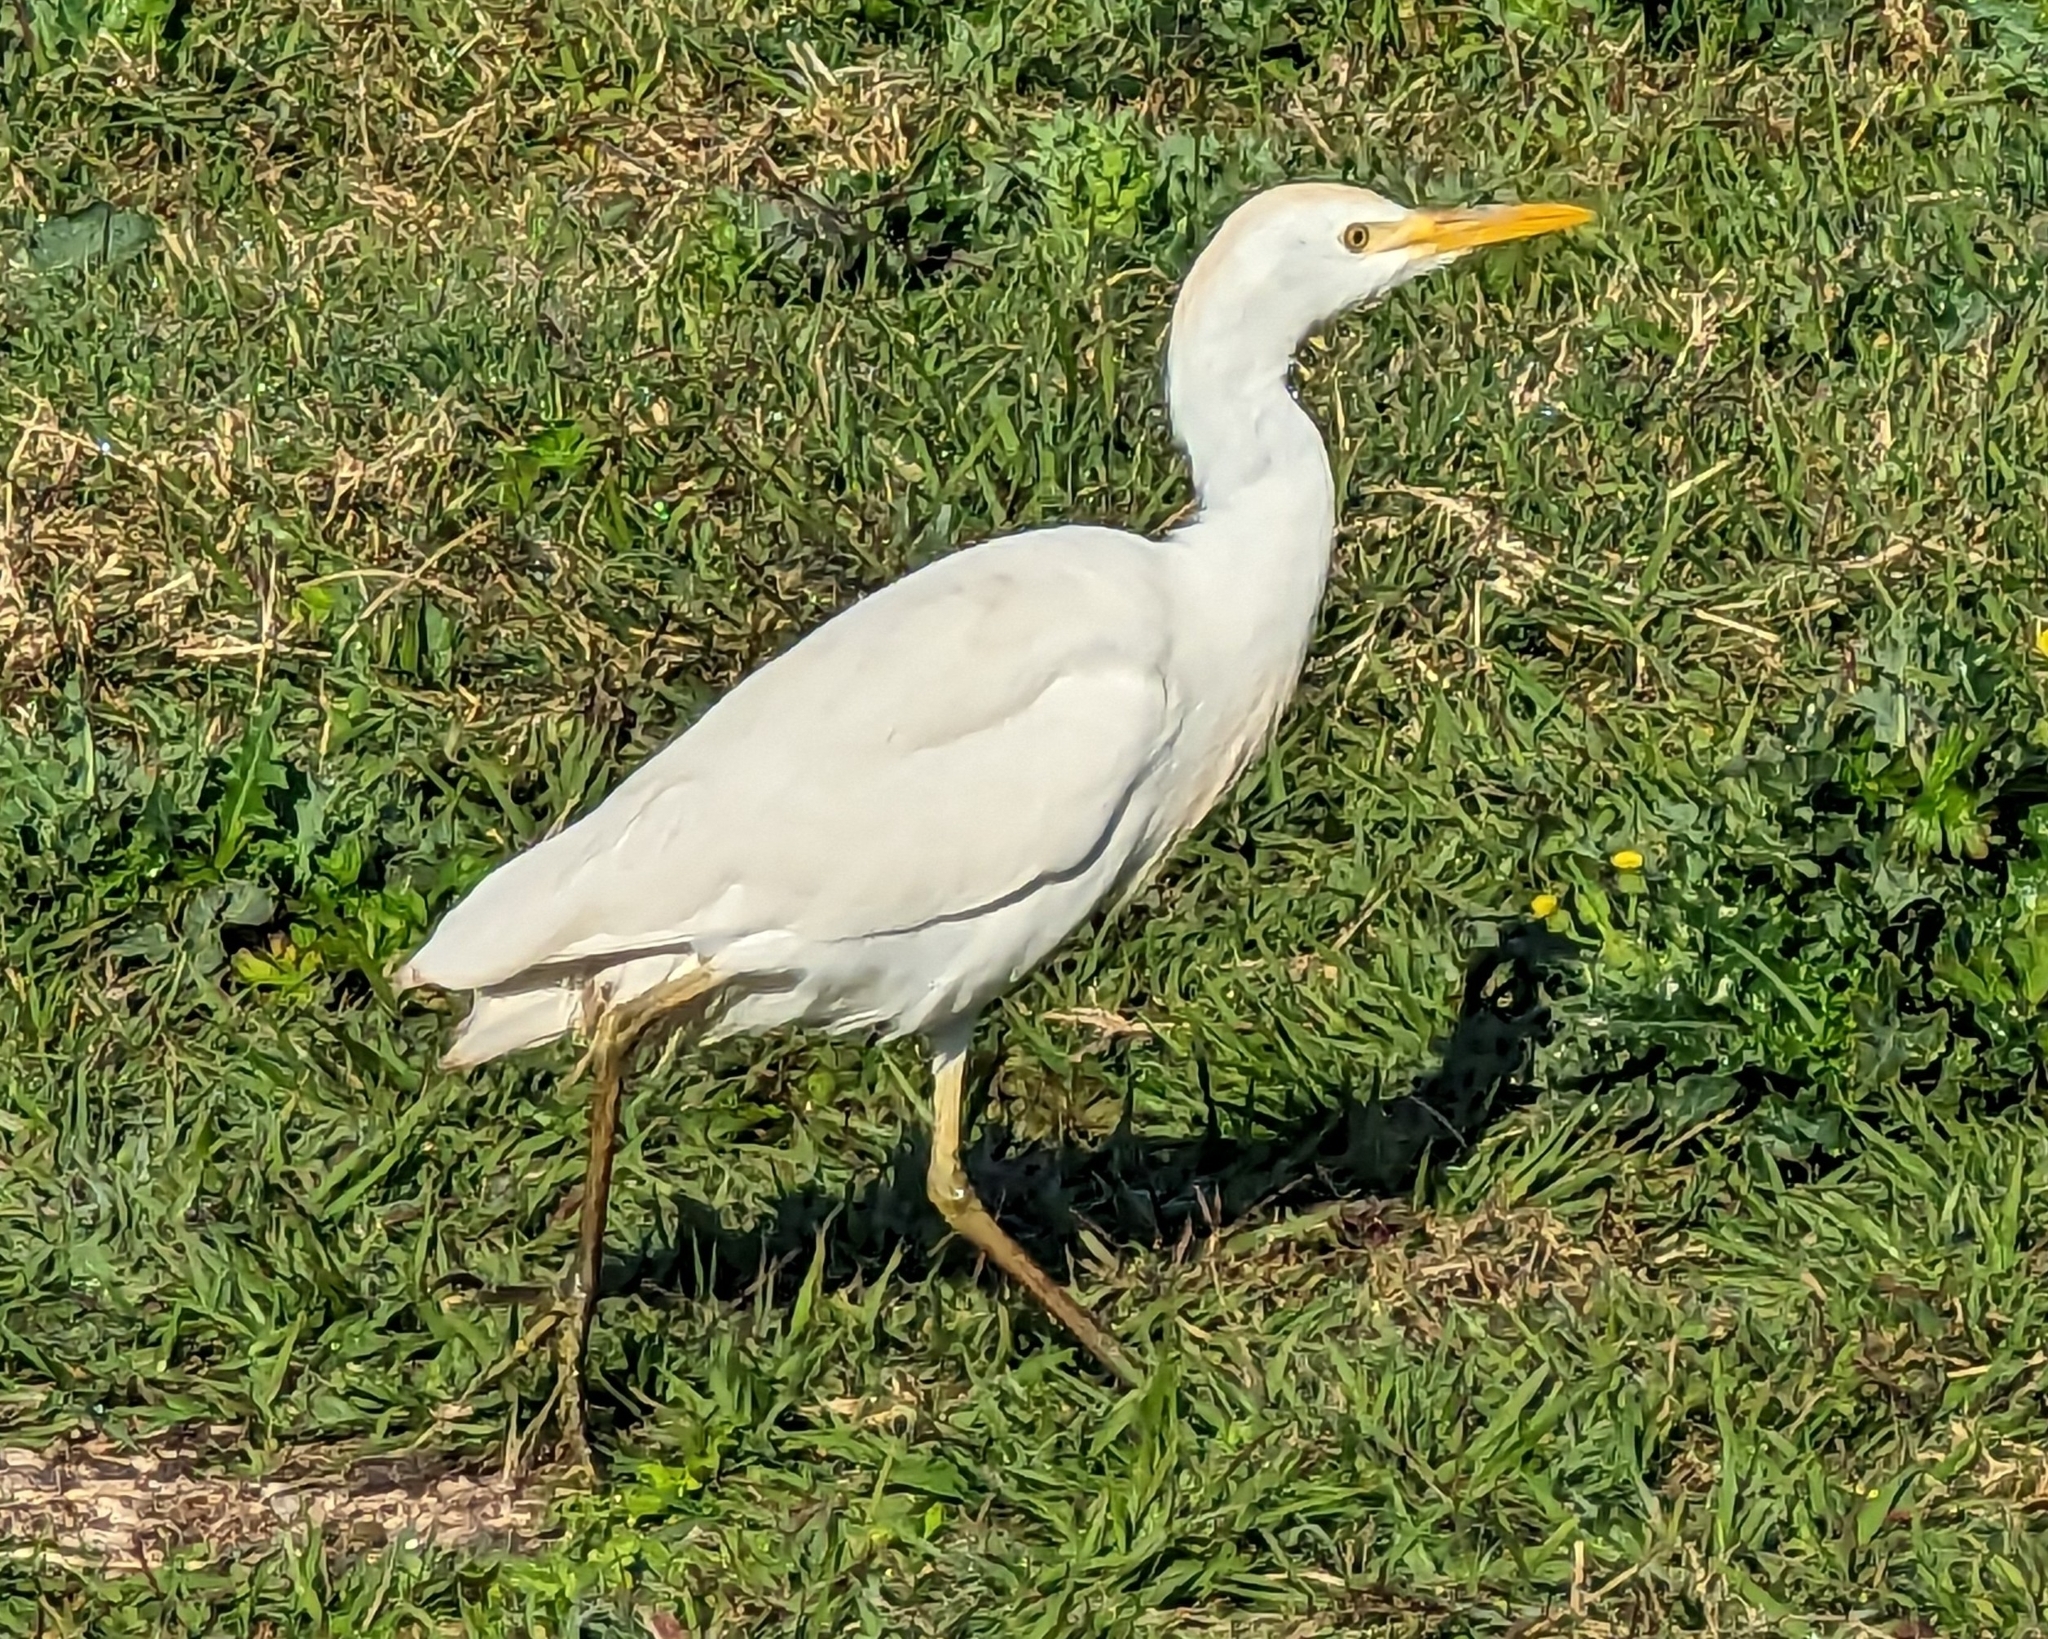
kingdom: Animalia
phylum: Chordata
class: Aves
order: Pelecaniformes
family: Ardeidae
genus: Bubulcus
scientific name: Bubulcus ibis
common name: Cattle egret
